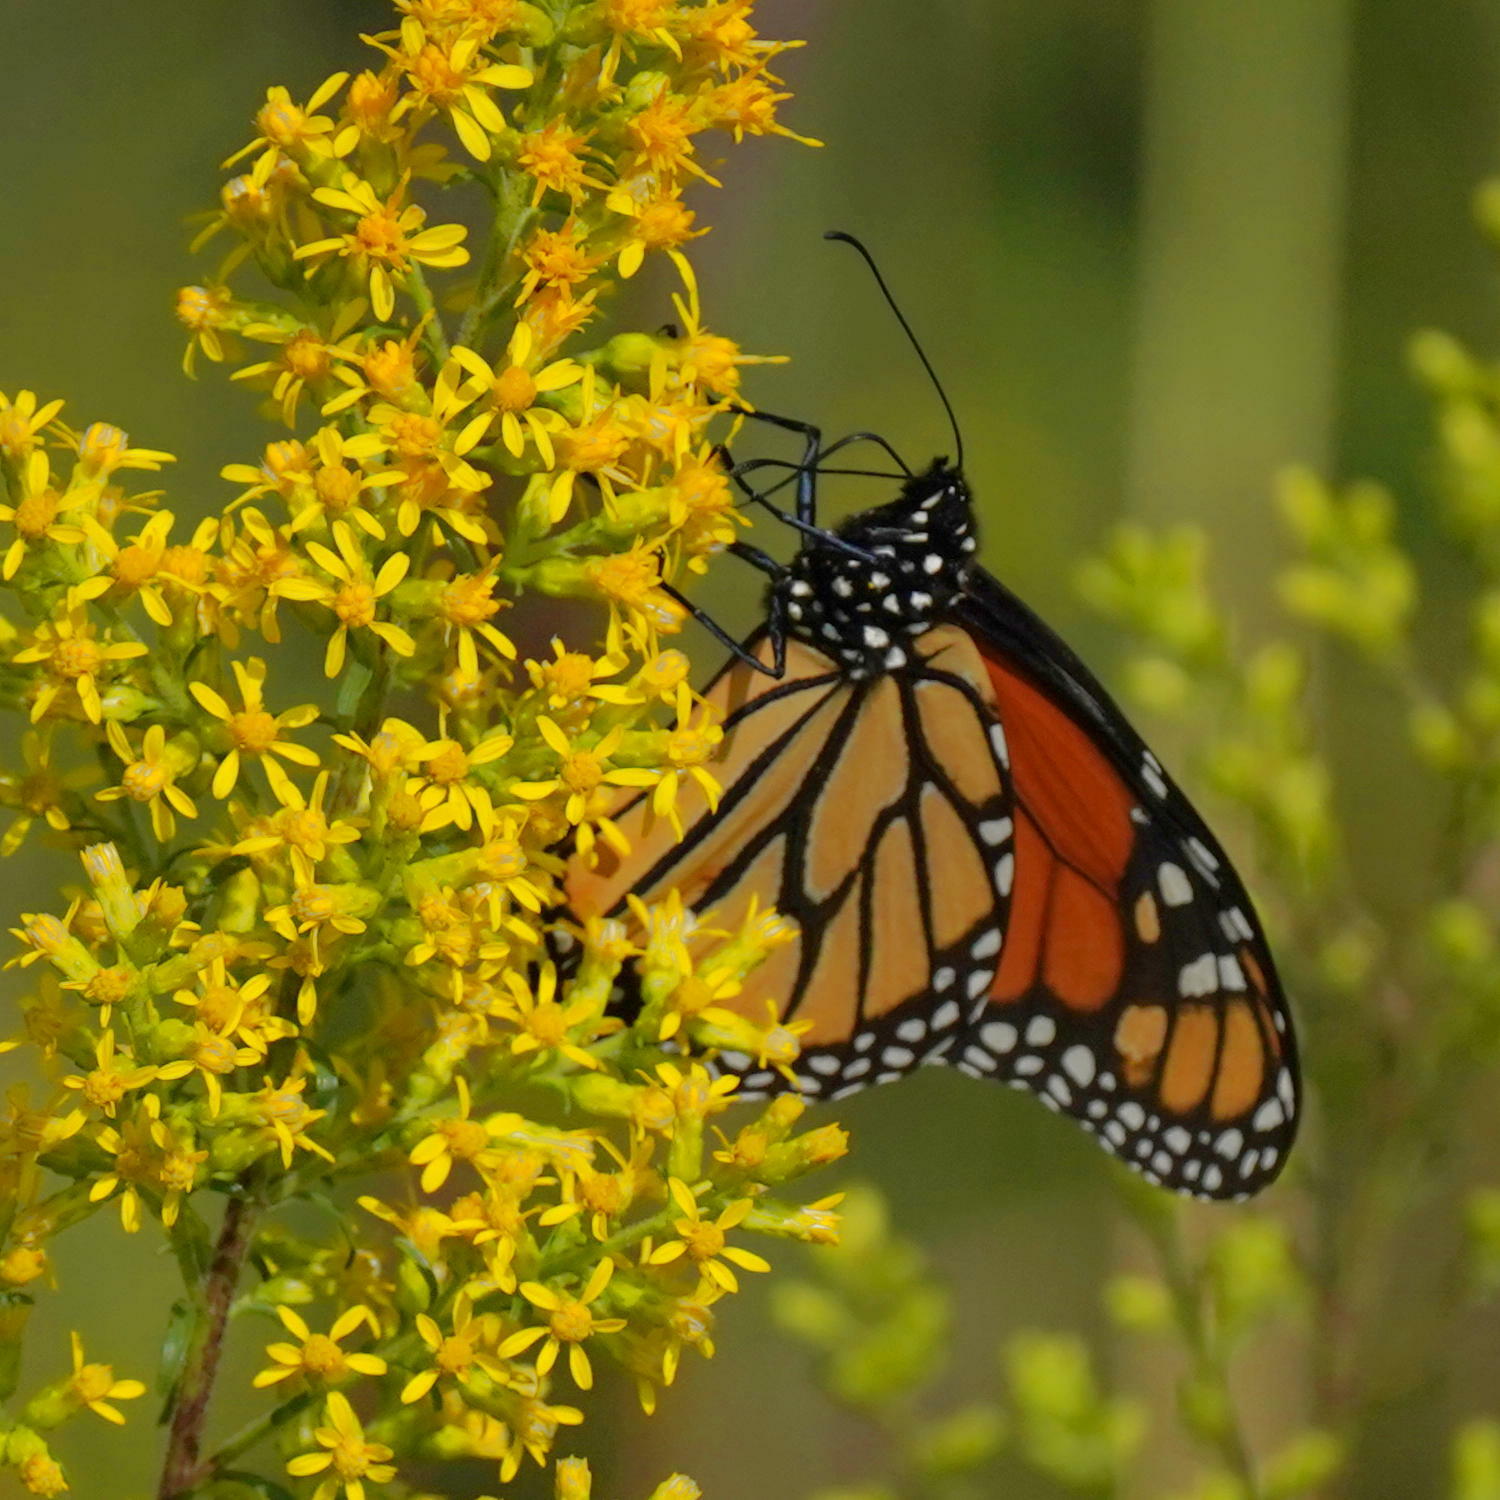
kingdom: Animalia
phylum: Arthropoda
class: Insecta
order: Lepidoptera
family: Nymphalidae
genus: Danaus
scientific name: Danaus plexippus
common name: Monarch
